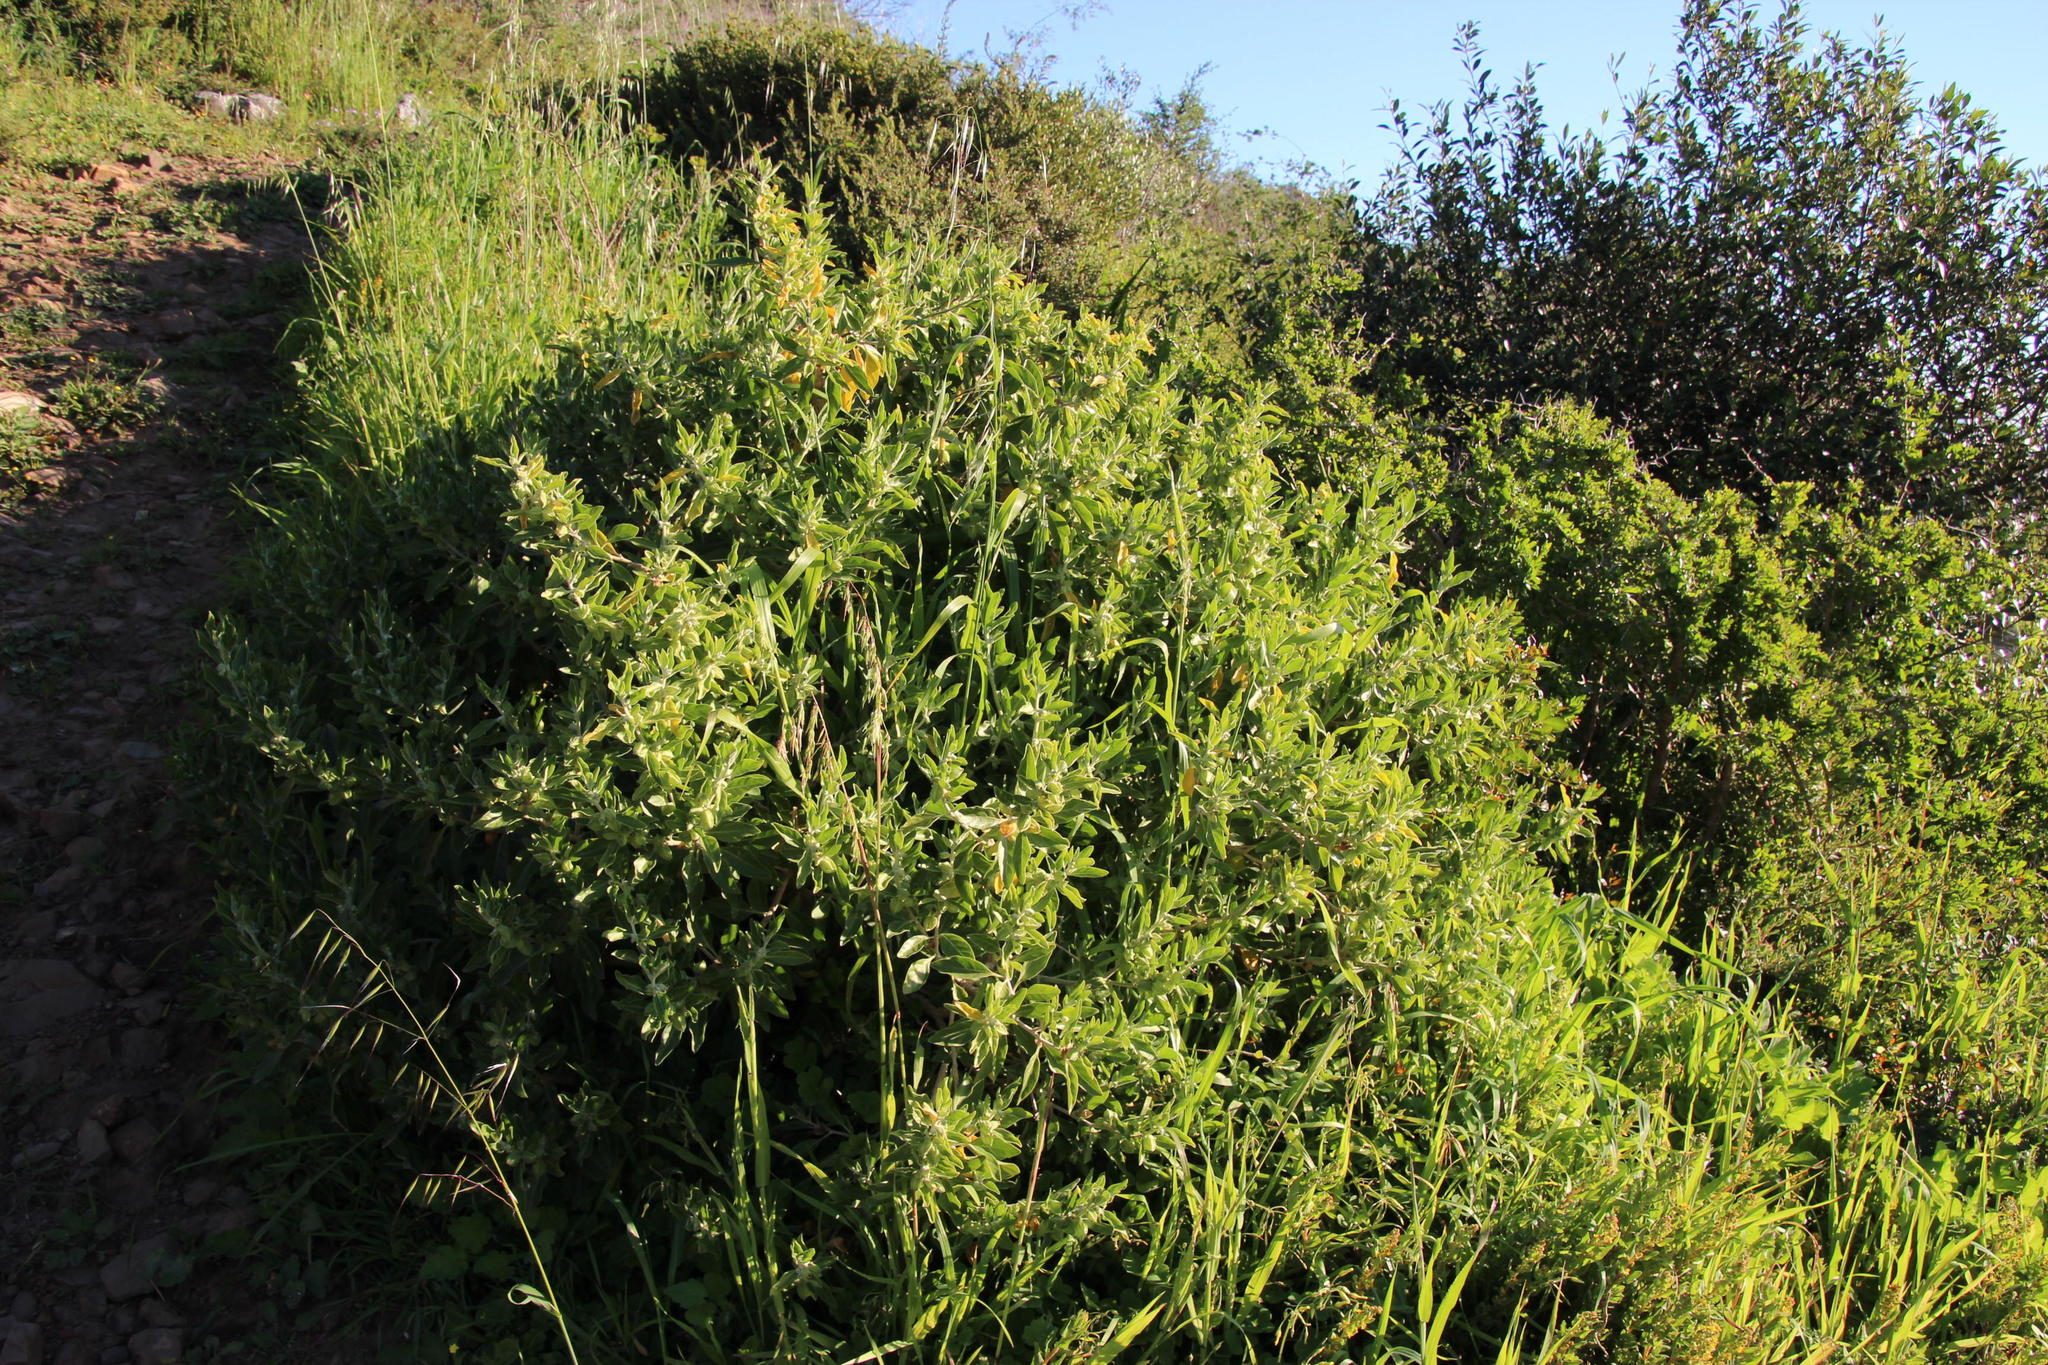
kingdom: Plantae
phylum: Tracheophyta
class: Magnoliopsida
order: Solanales
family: Solanaceae
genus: Withania
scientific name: Withania somnifera
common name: Winter-cherry
